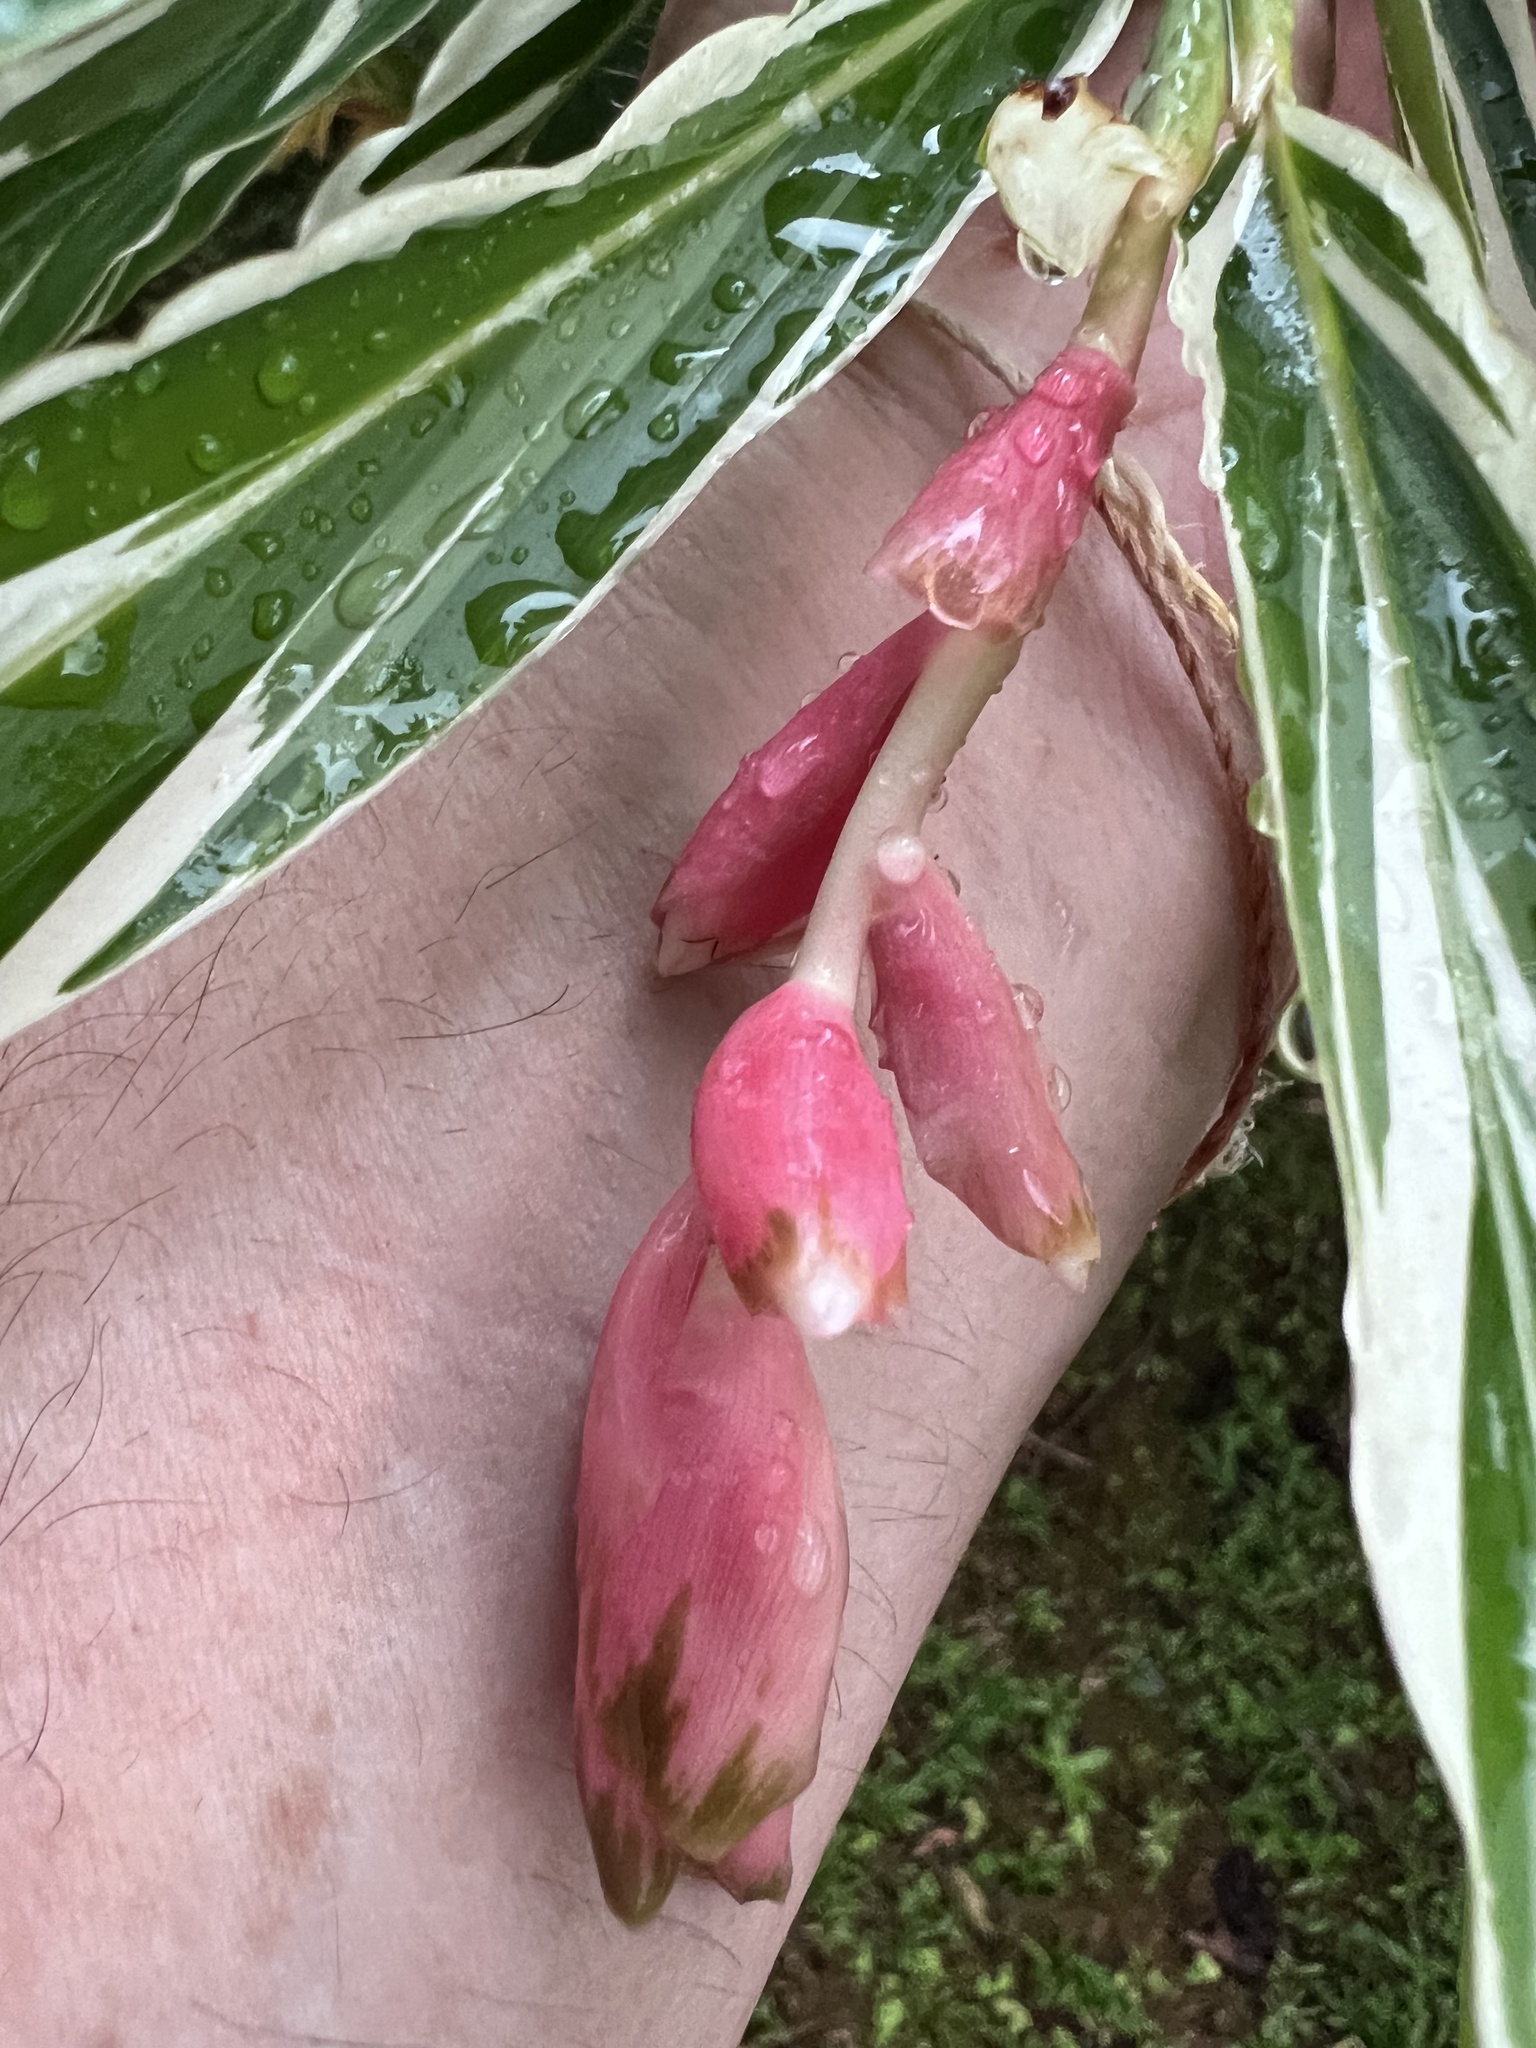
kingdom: Plantae
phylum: Tracheophyta
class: Liliopsida
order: Zingiberales
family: Zingiberaceae
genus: Alpinia
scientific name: Alpinia purpurata
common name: Red ginger
